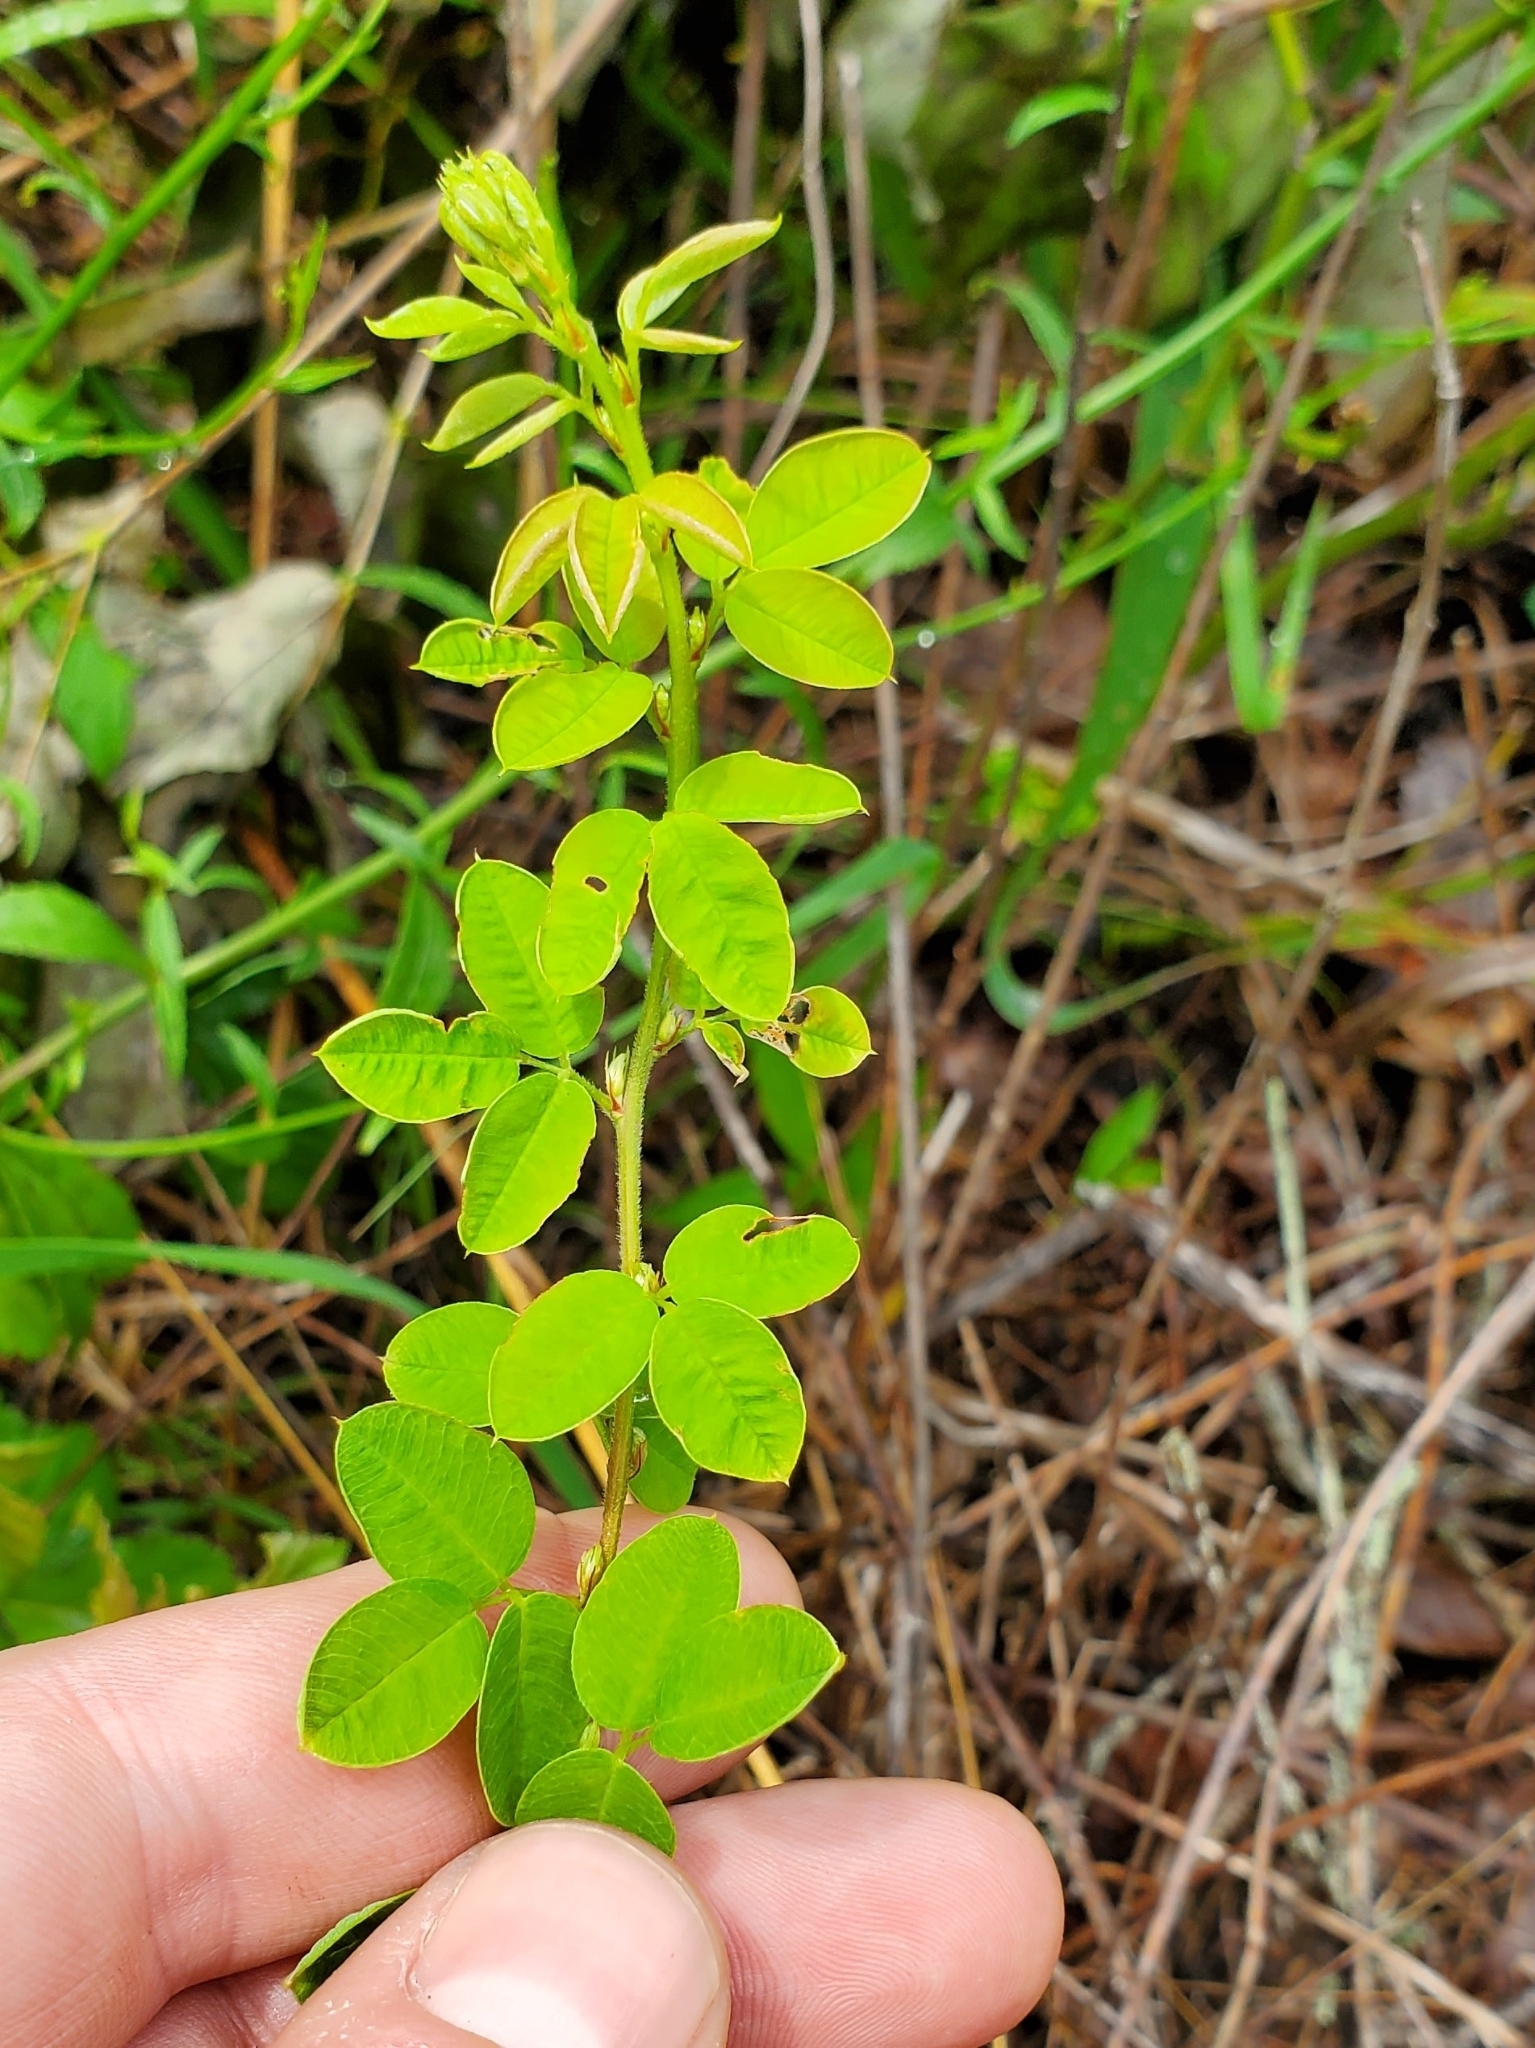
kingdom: Plantae
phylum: Tracheophyta
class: Magnoliopsida
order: Fabales
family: Fabaceae
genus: Lespedeza
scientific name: Lespedeza hirta
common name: Hairy lespedeza
